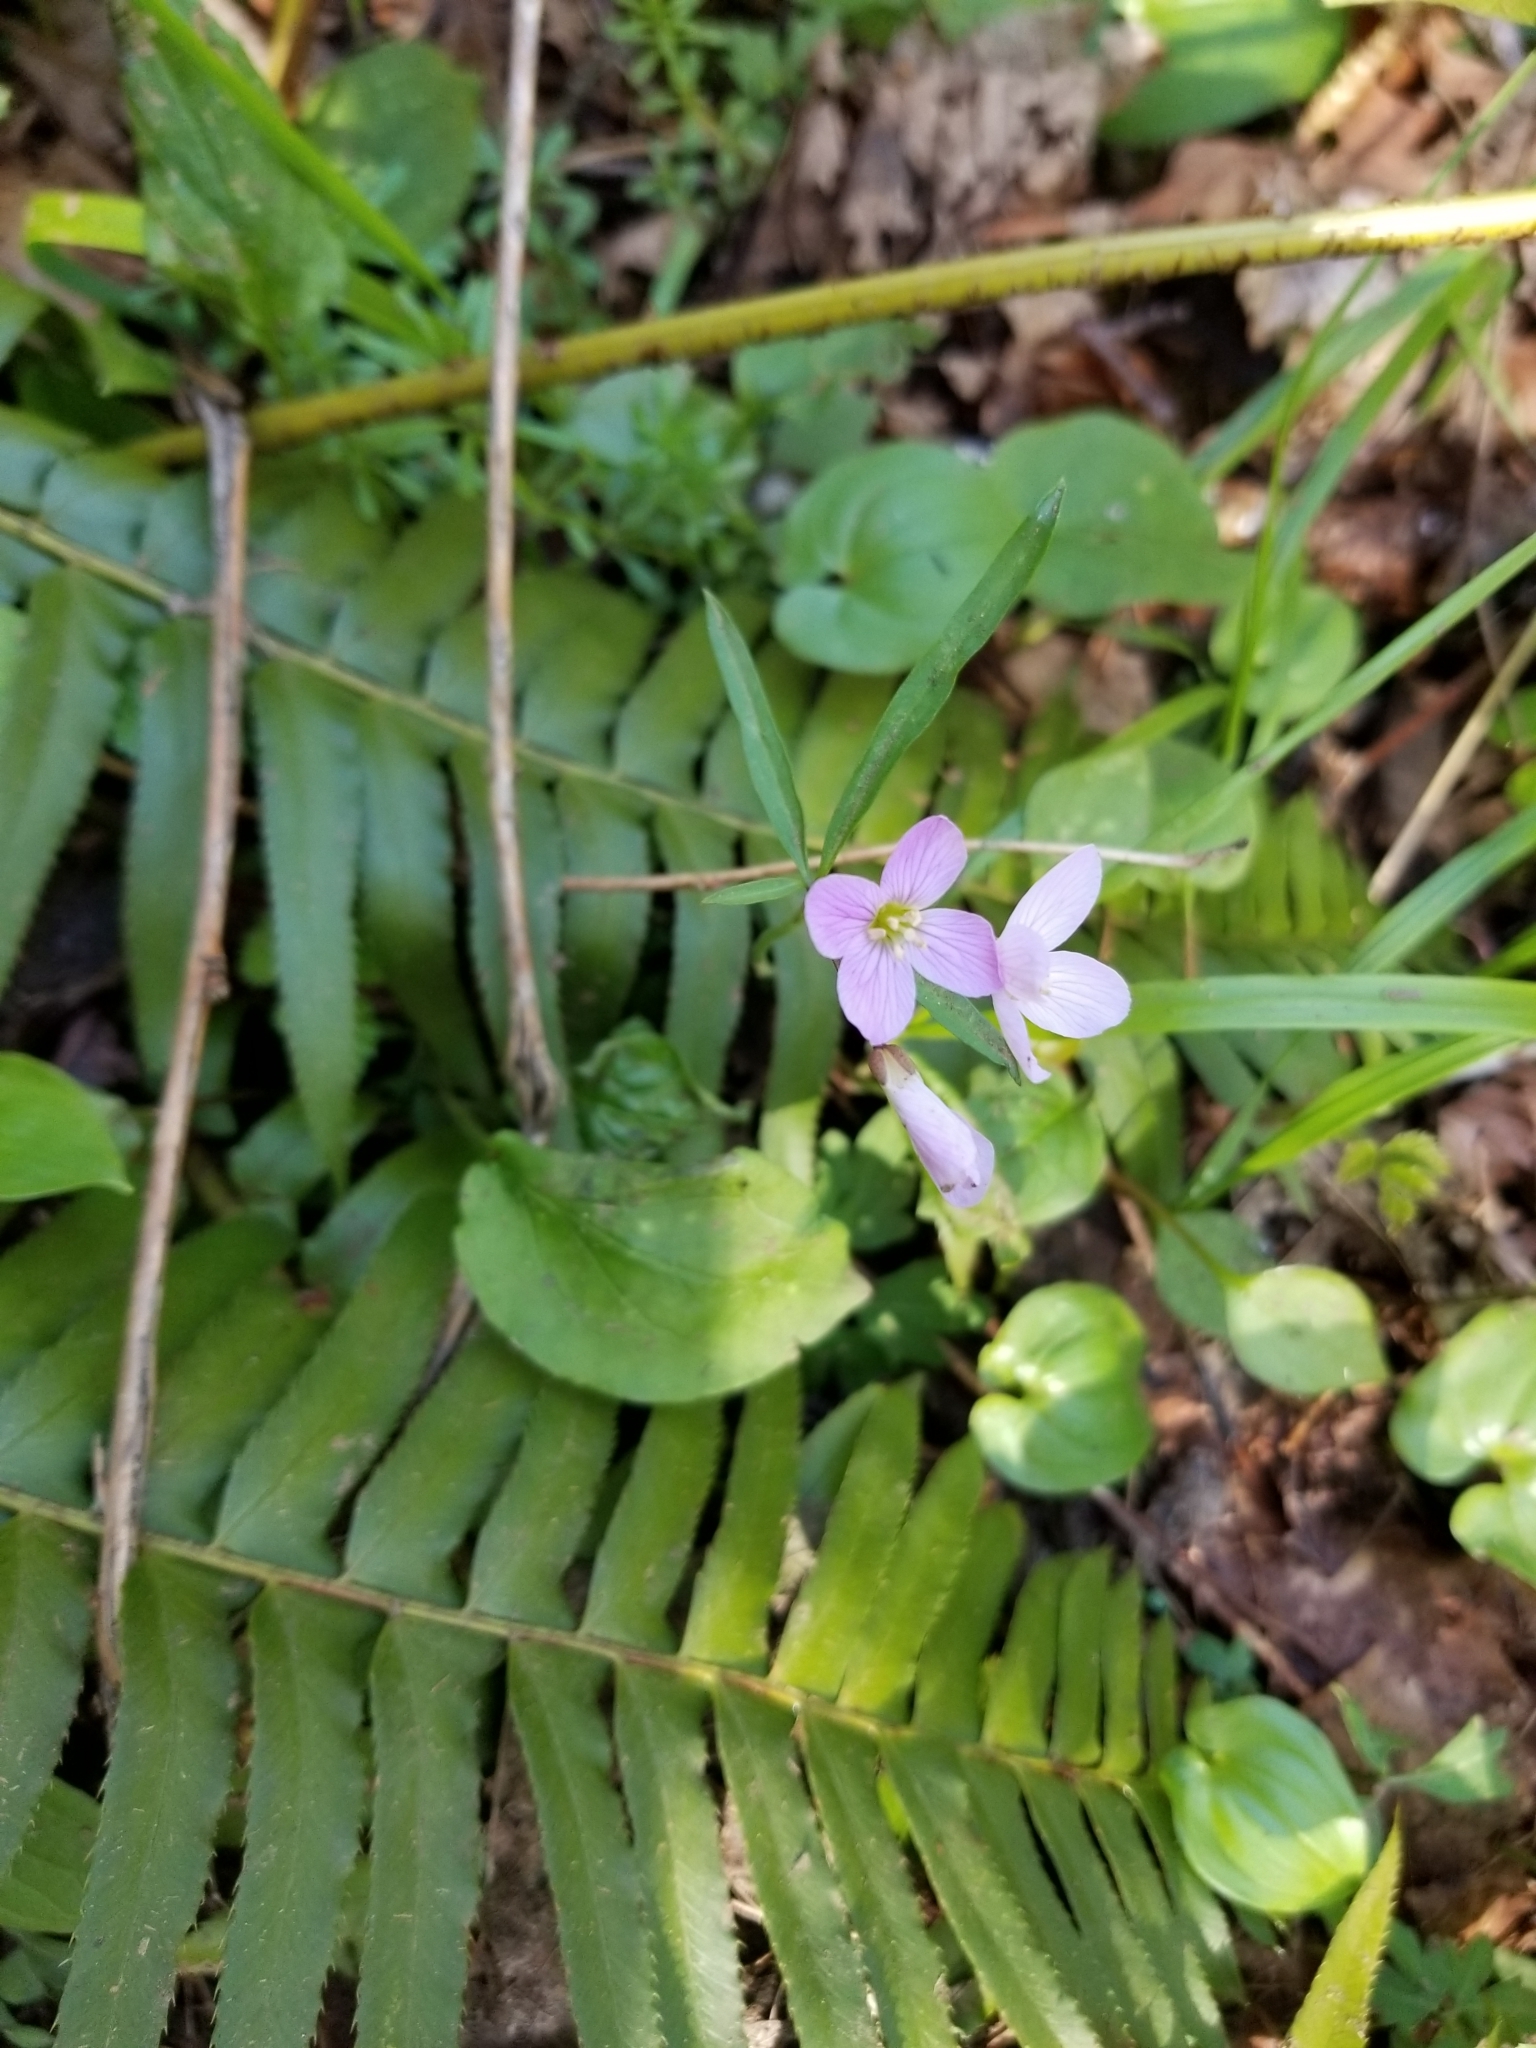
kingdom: Plantae
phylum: Tracheophyta
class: Magnoliopsida
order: Brassicales
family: Brassicaceae
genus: Cardamine
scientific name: Cardamine nuttallii
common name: Nuttall's toothwort
